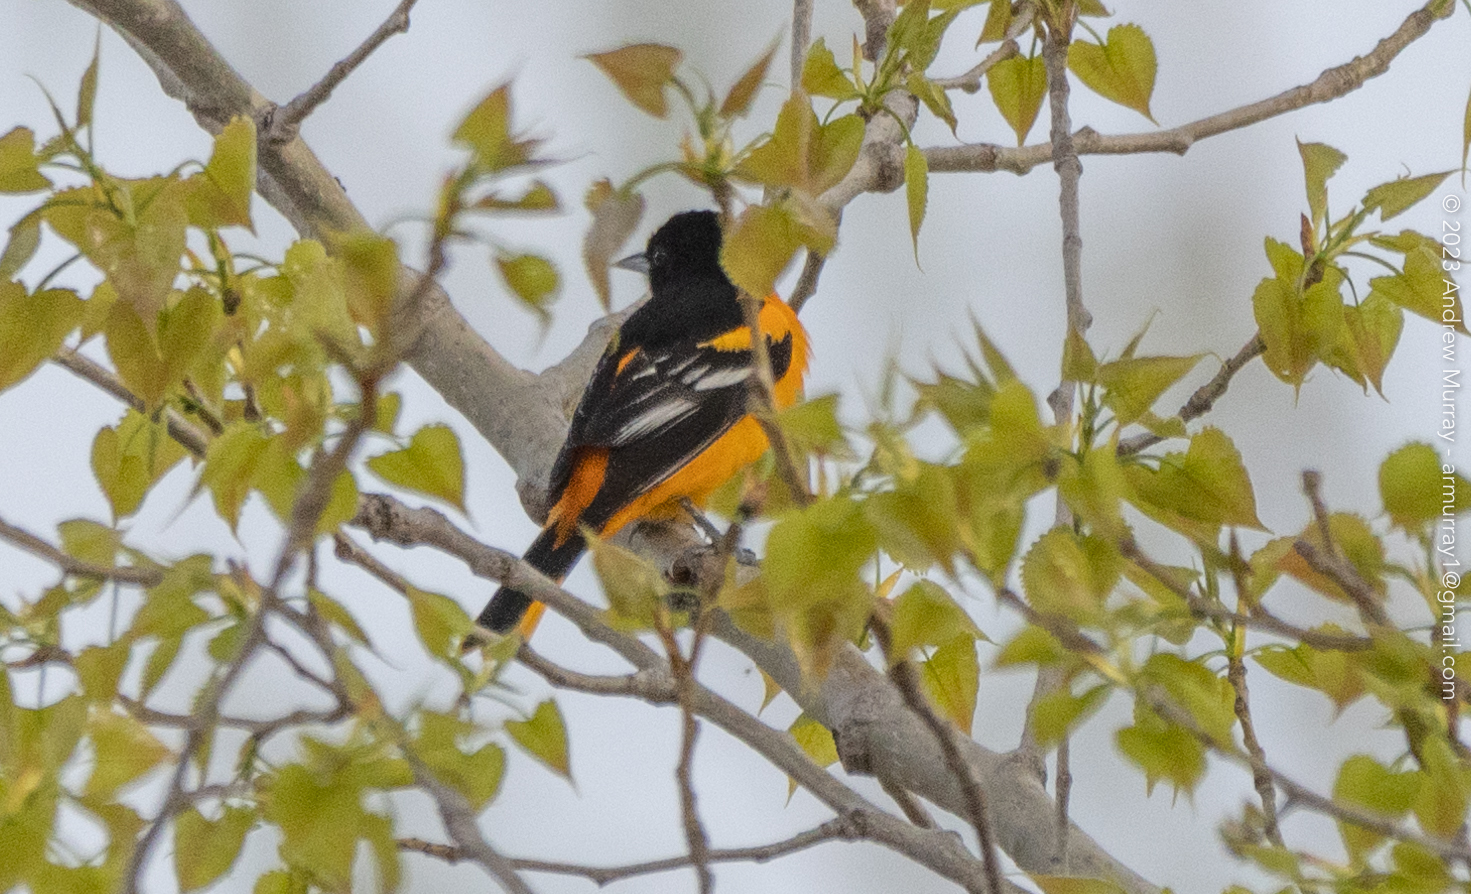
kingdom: Animalia
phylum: Chordata
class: Aves
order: Passeriformes
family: Icteridae
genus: Icterus
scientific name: Icterus galbula
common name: Baltimore oriole
